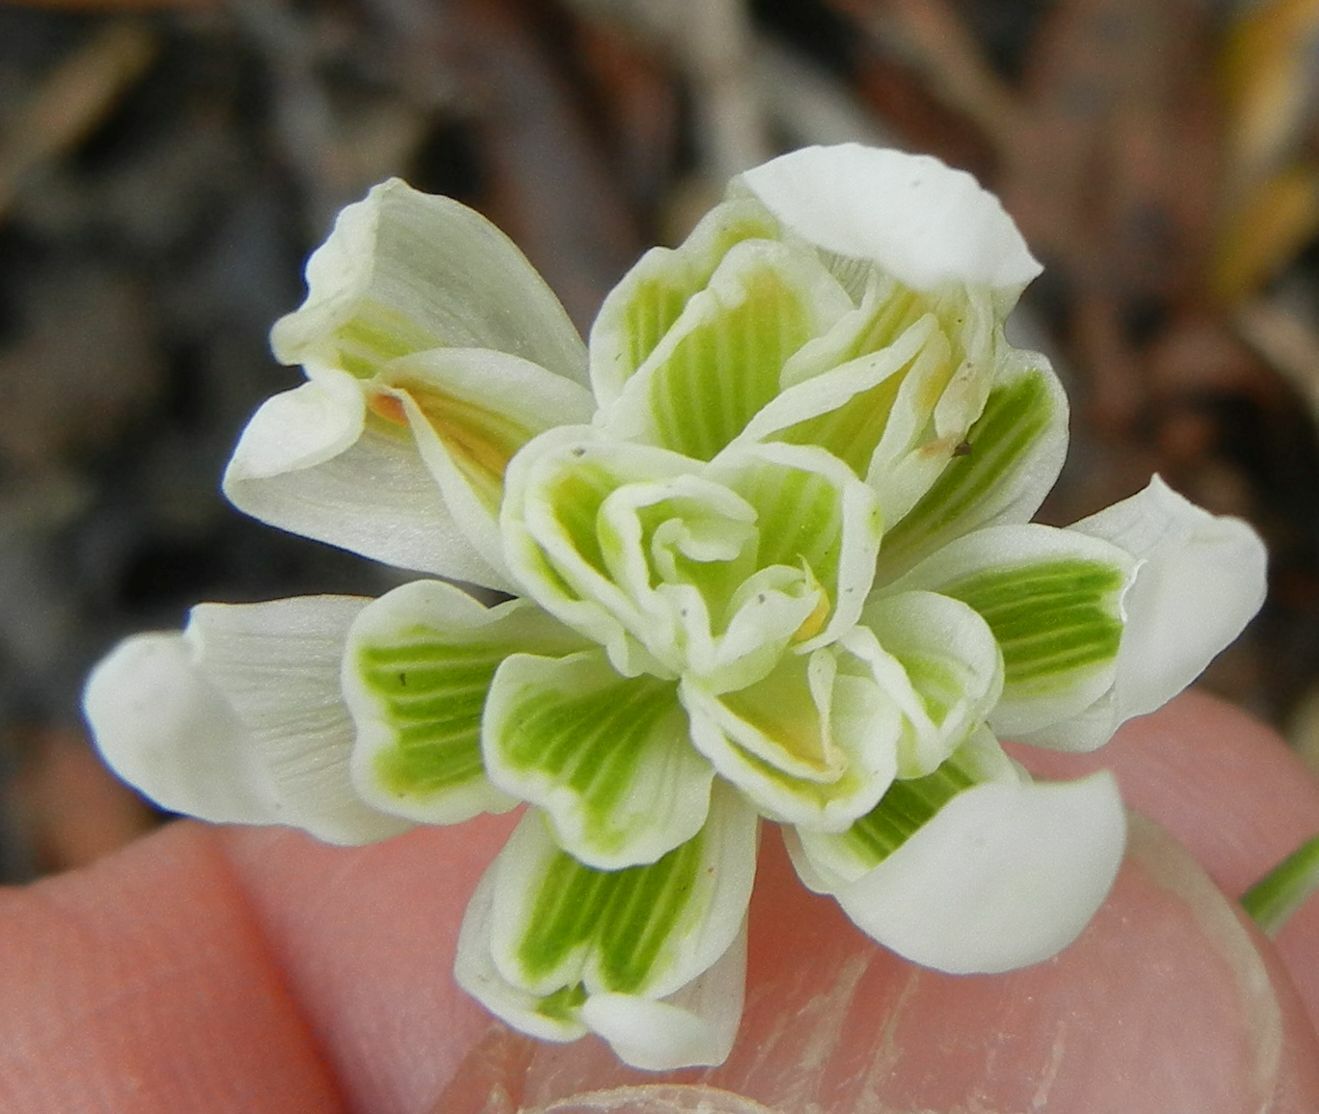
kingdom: Plantae
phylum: Tracheophyta
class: Liliopsida
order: Asparagales
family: Amaryllidaceae
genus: Galanthus
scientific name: Galanthus nivalis
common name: Snowdrop
